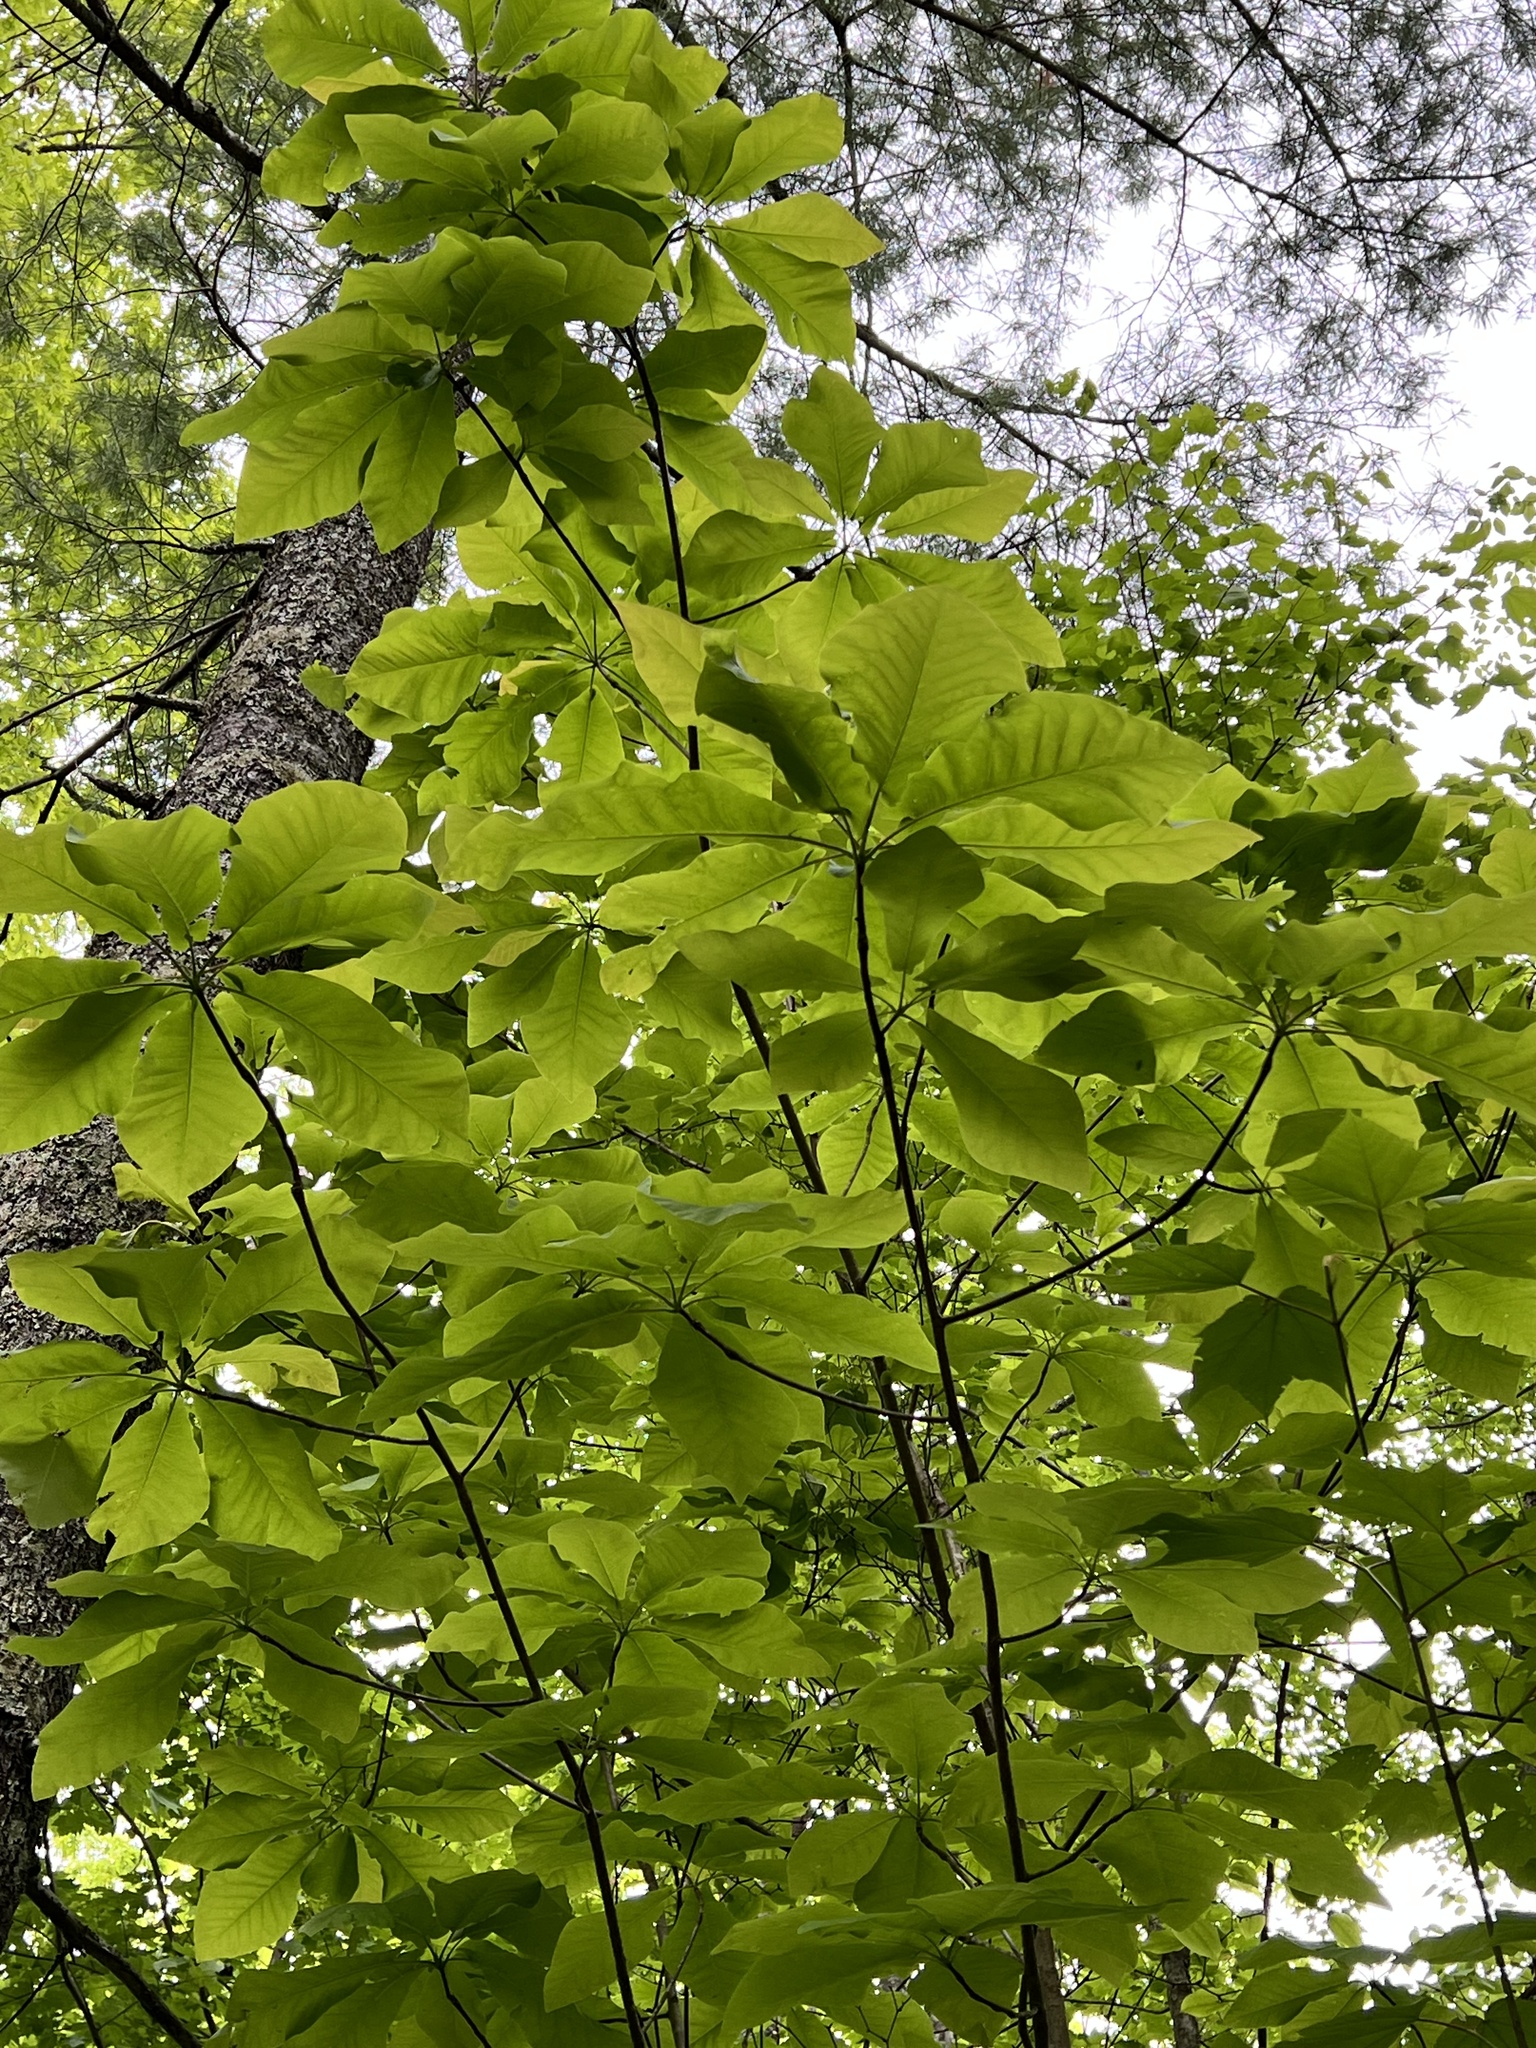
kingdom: Plantae
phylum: Tracheophyta
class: Magnoliopsida
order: Magnoliales
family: Magnoliaceae
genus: Magnolia
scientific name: Magnolia fraseri
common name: Fraser's magnolia
